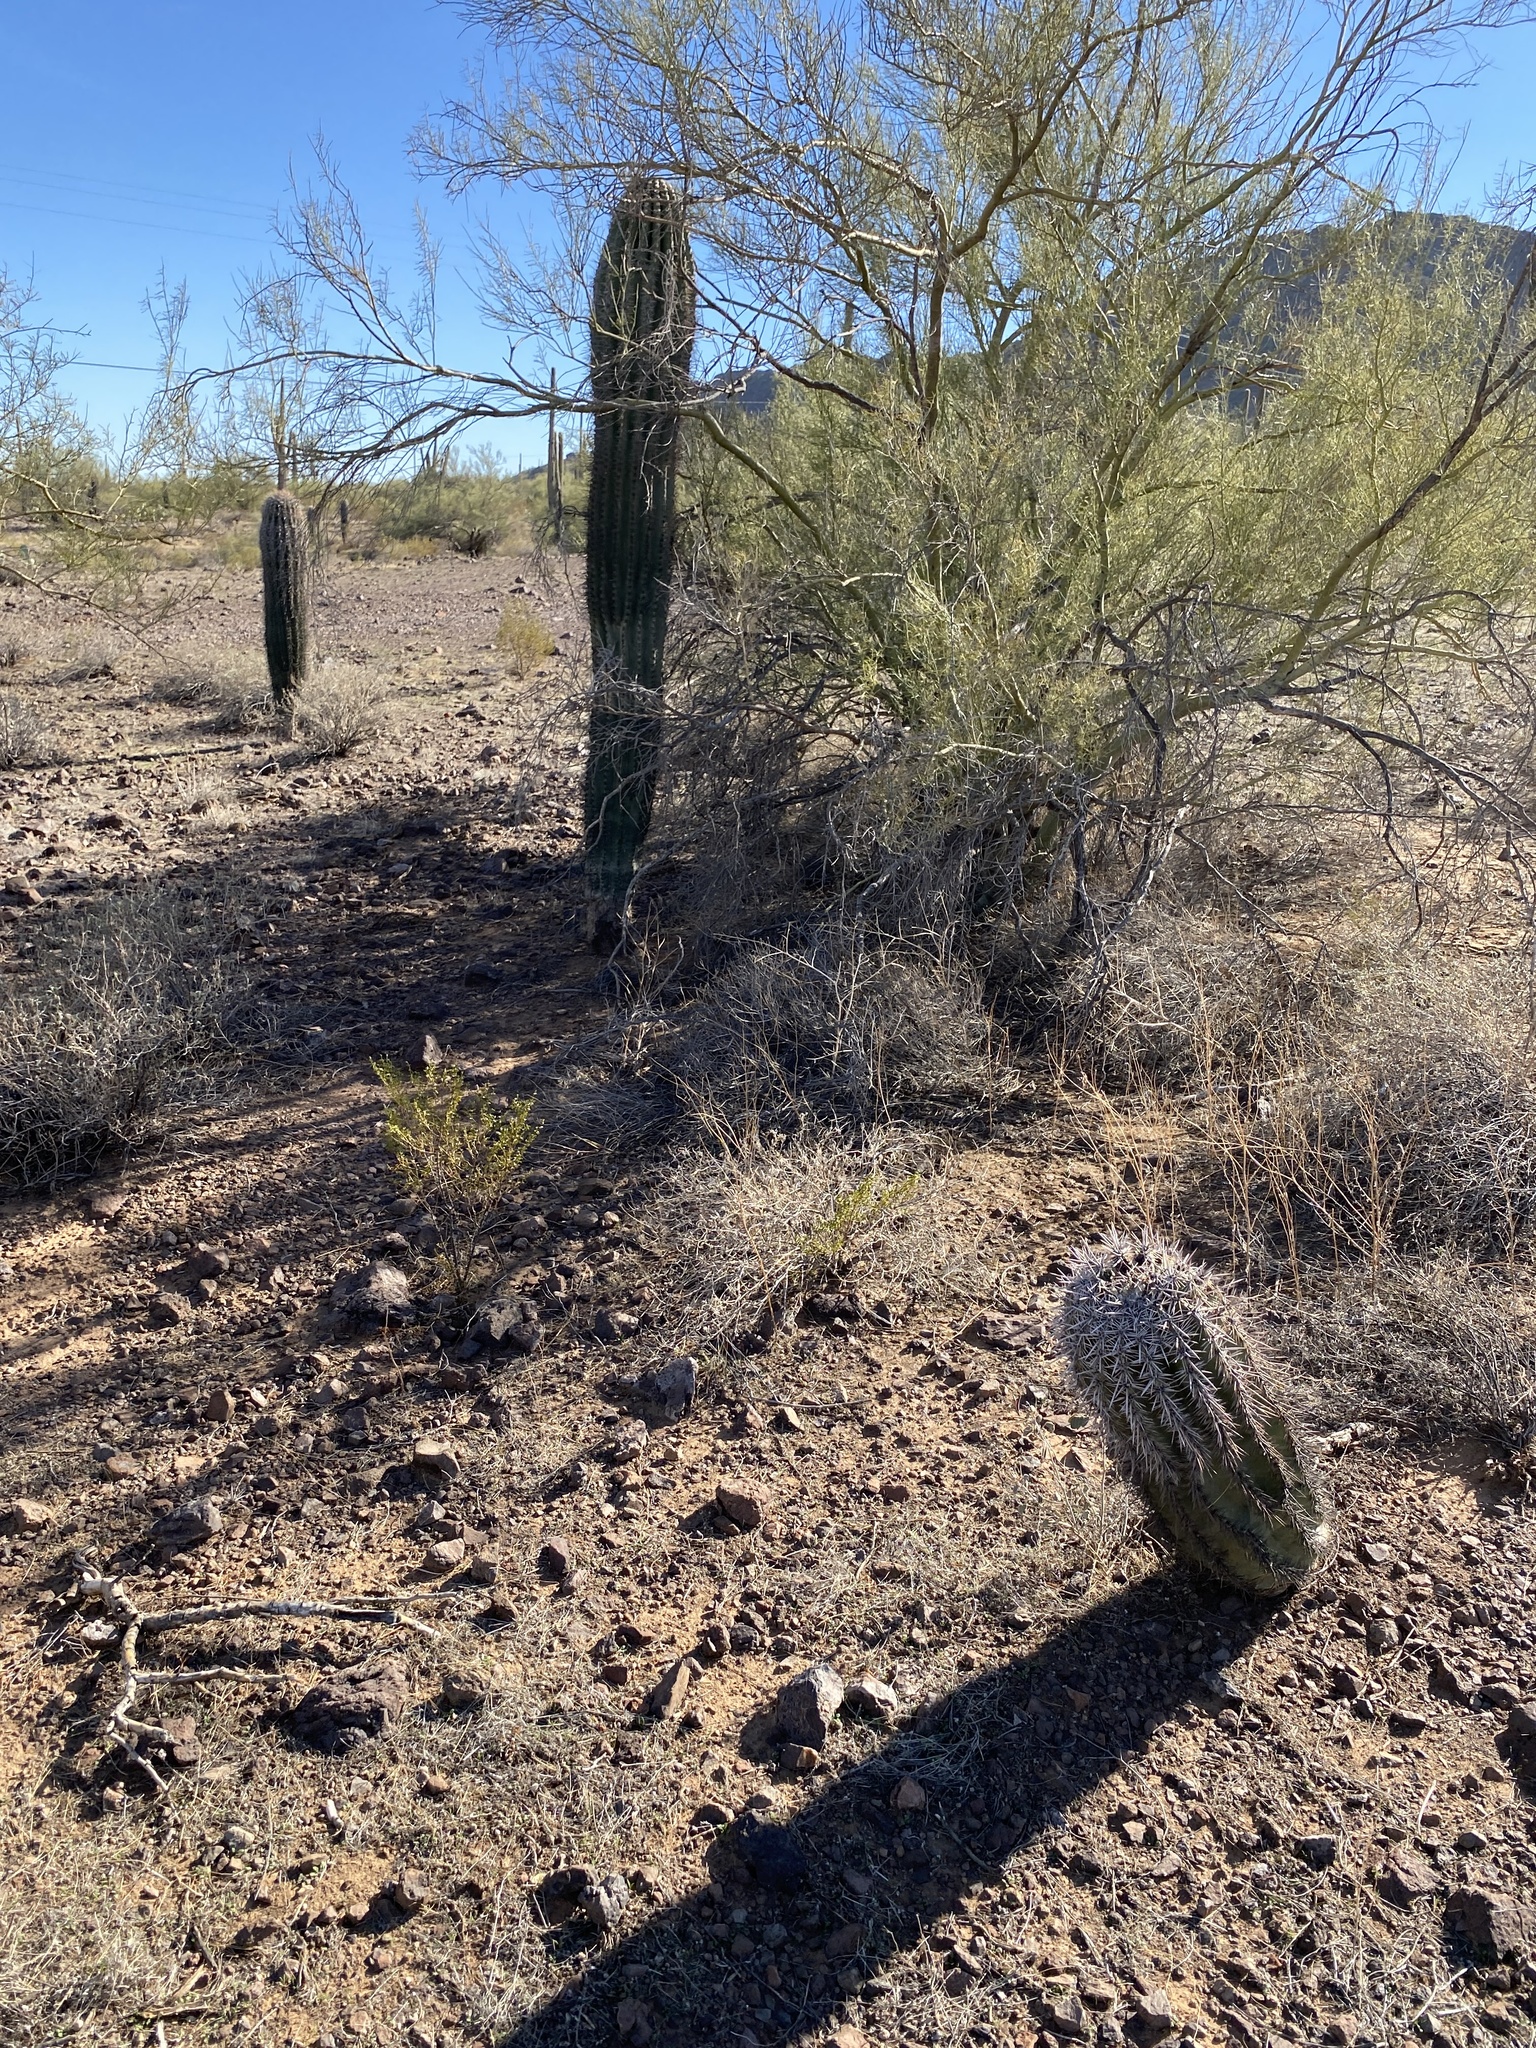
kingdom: Plantae
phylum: Tracheophyta
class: Magnoliopsida
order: Caryophyllales
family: Cactaceae
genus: Carnegiea
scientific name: Carnegiea gigantea
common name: Saguaro
